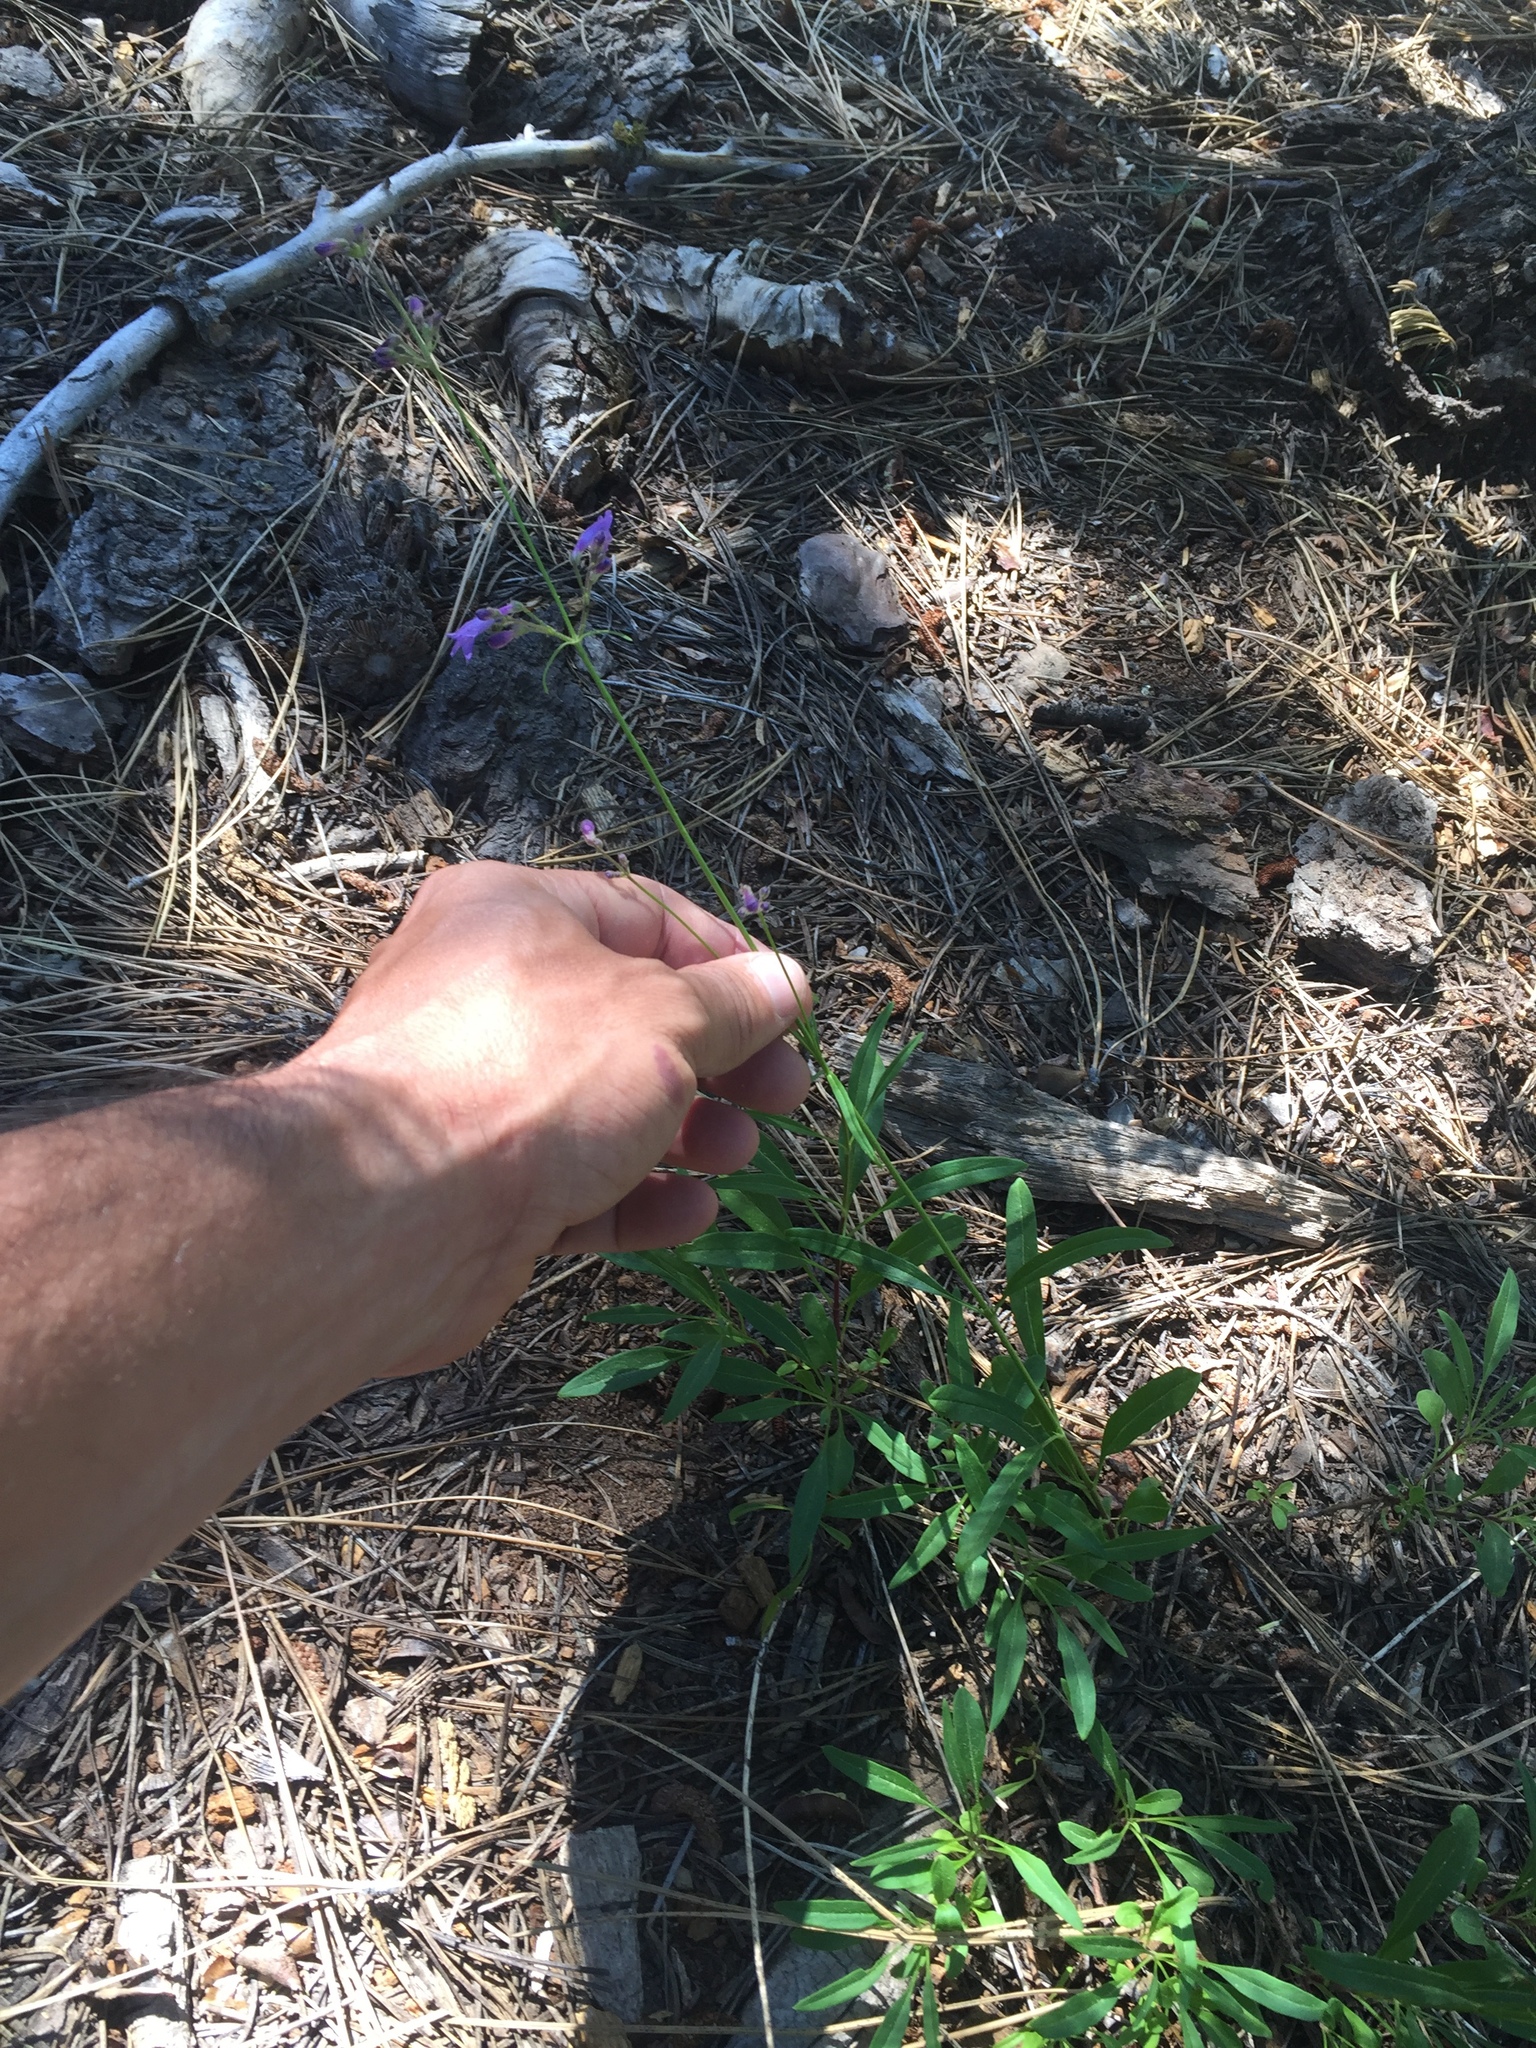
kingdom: Plantae
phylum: Tracheophyta
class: Magnoliopsida
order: Lamiales
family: Plantaginaceae
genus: Penstemon
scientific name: Penstemon gracilentus
